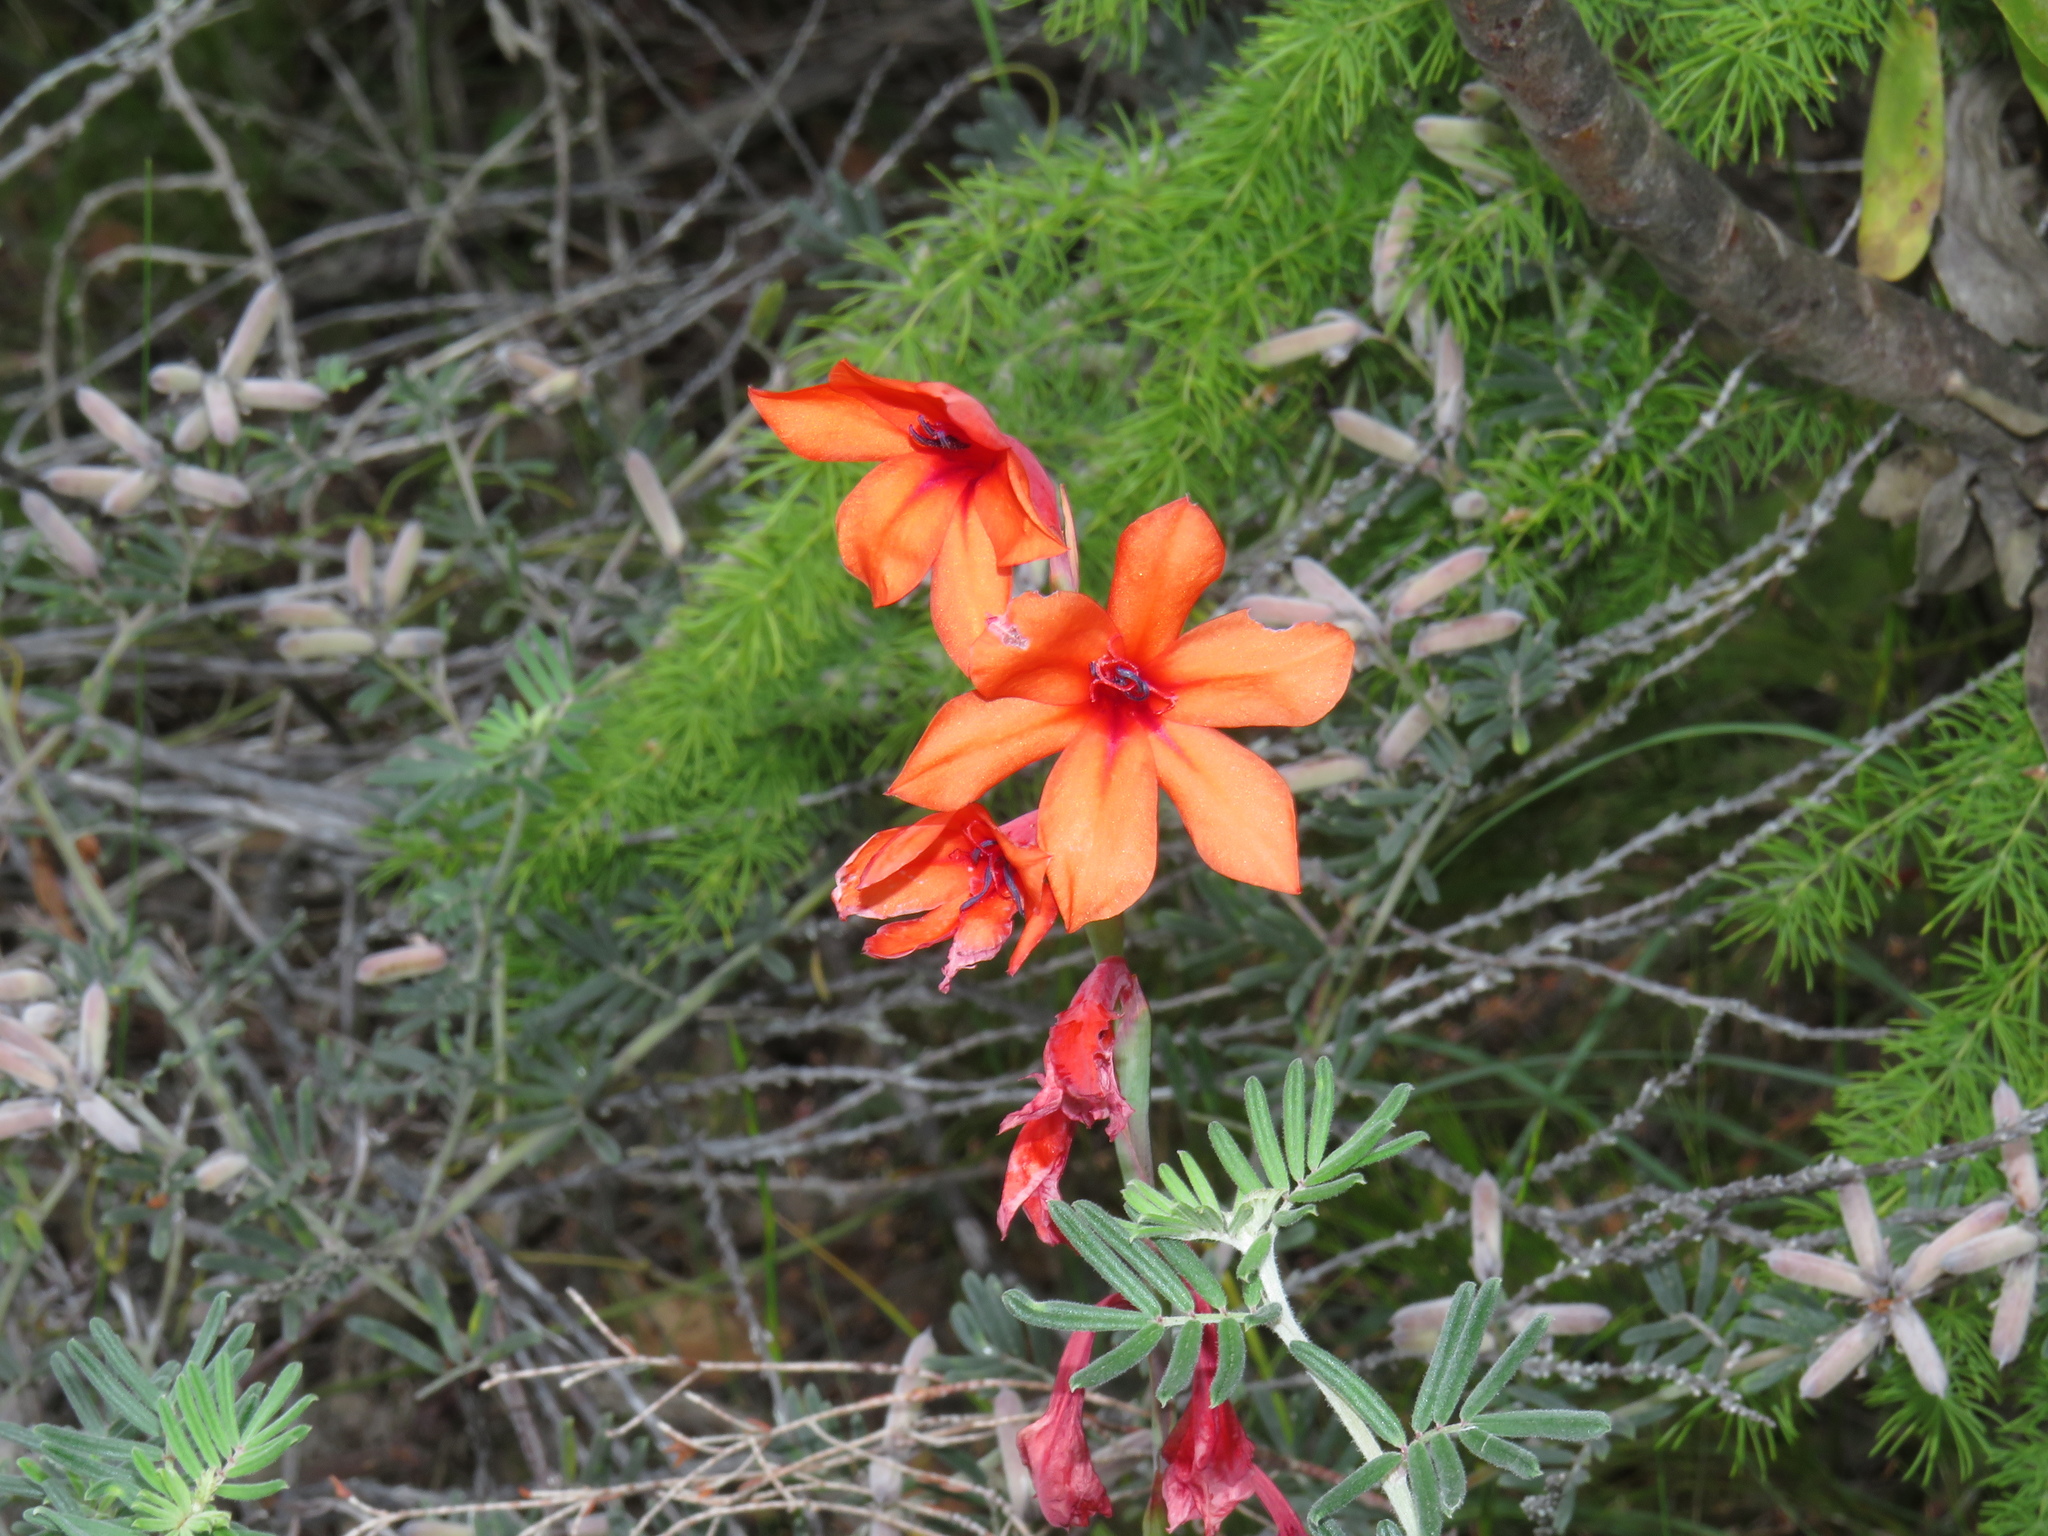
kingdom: Plantae
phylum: Tracheophyta
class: Liliopsida
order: Asparagales
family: Iridaceae
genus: Watsonia
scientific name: Watsonia stenosiphon
